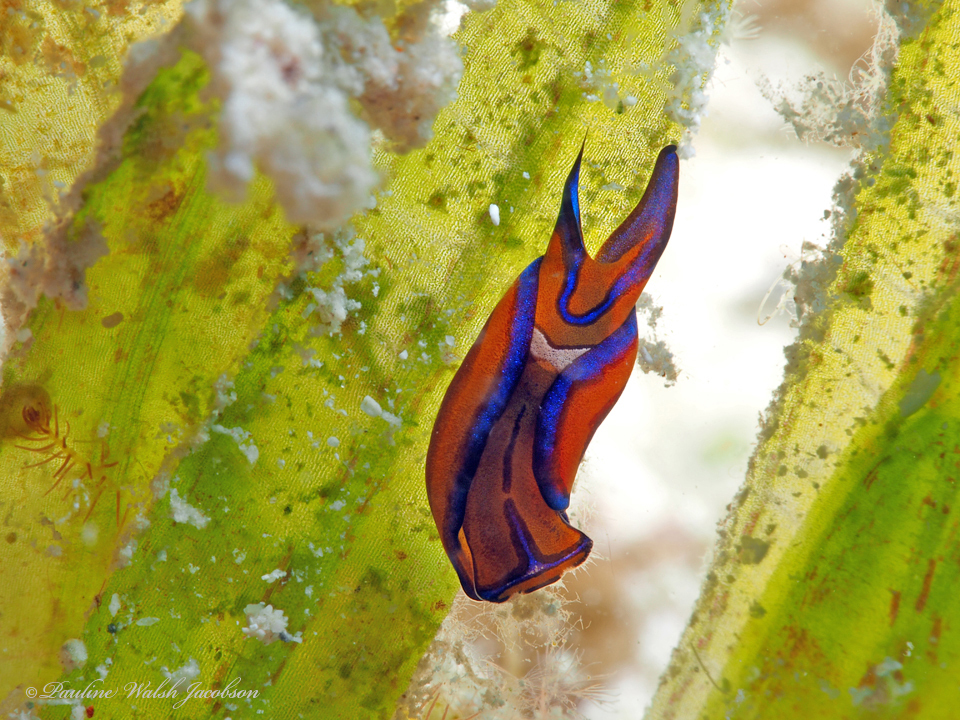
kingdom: Animalia
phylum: Mollusca
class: Gastropoda
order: Cephalaspidea
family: Aglajidae
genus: Chelidonura
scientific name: Chelidonura hirundinina
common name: Leech headshield slug
